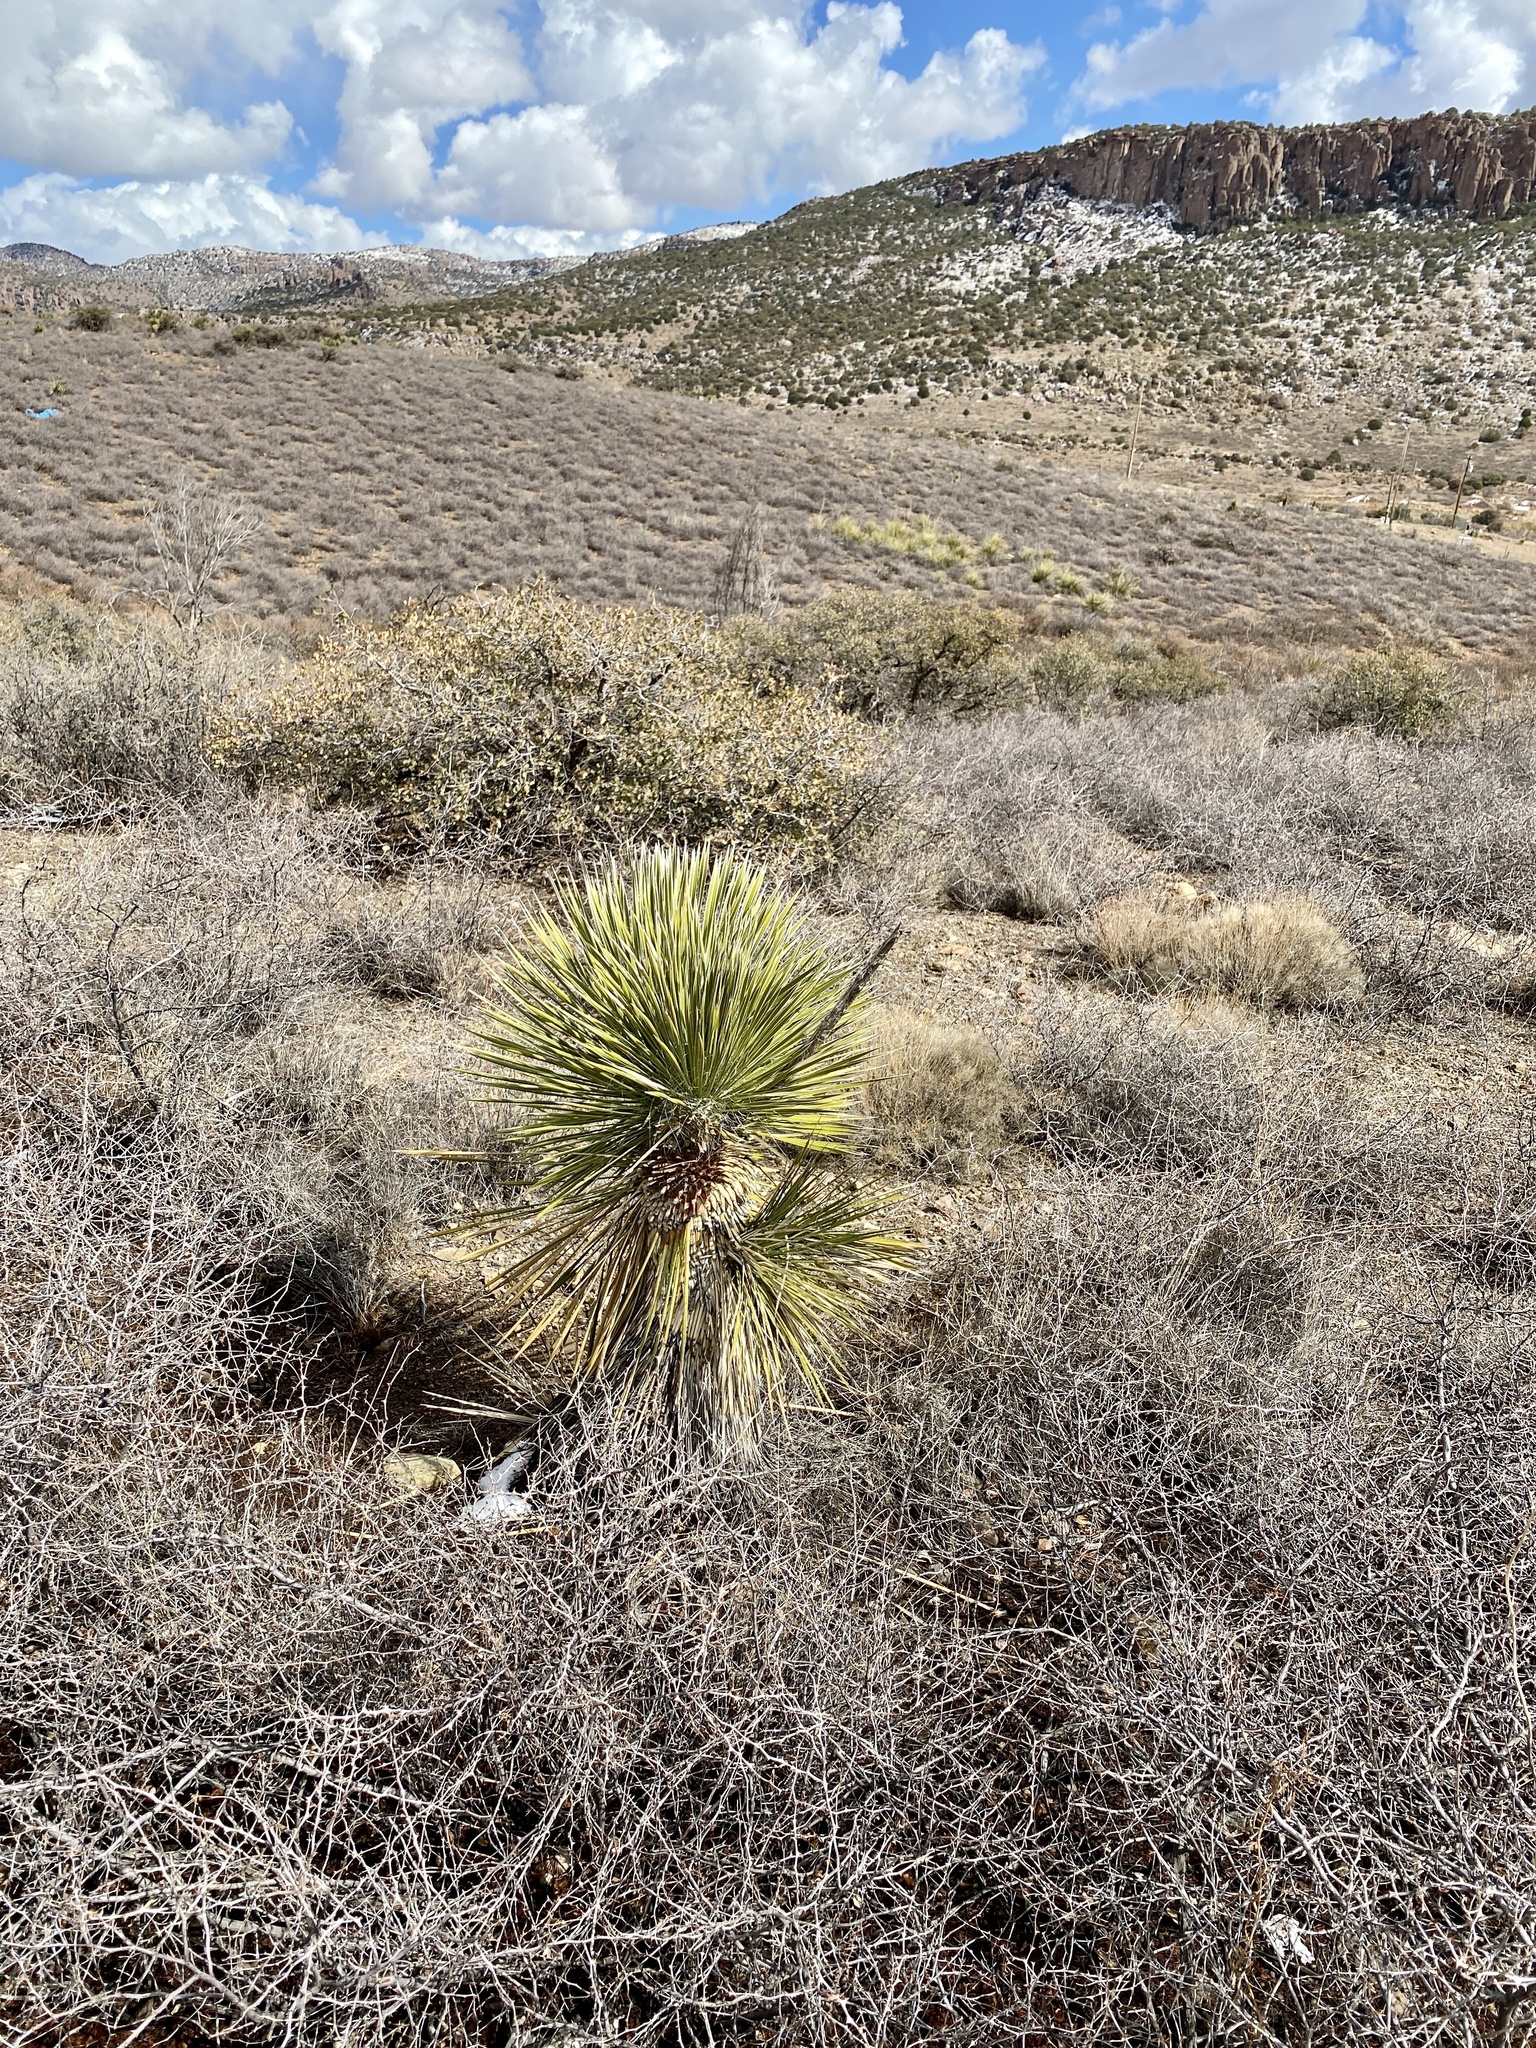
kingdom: Plantae
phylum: Tracheophyta
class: Liliopsida
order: Asparagales
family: Asparagaceae
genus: Yucca
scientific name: Yucca elata
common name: Palmella
